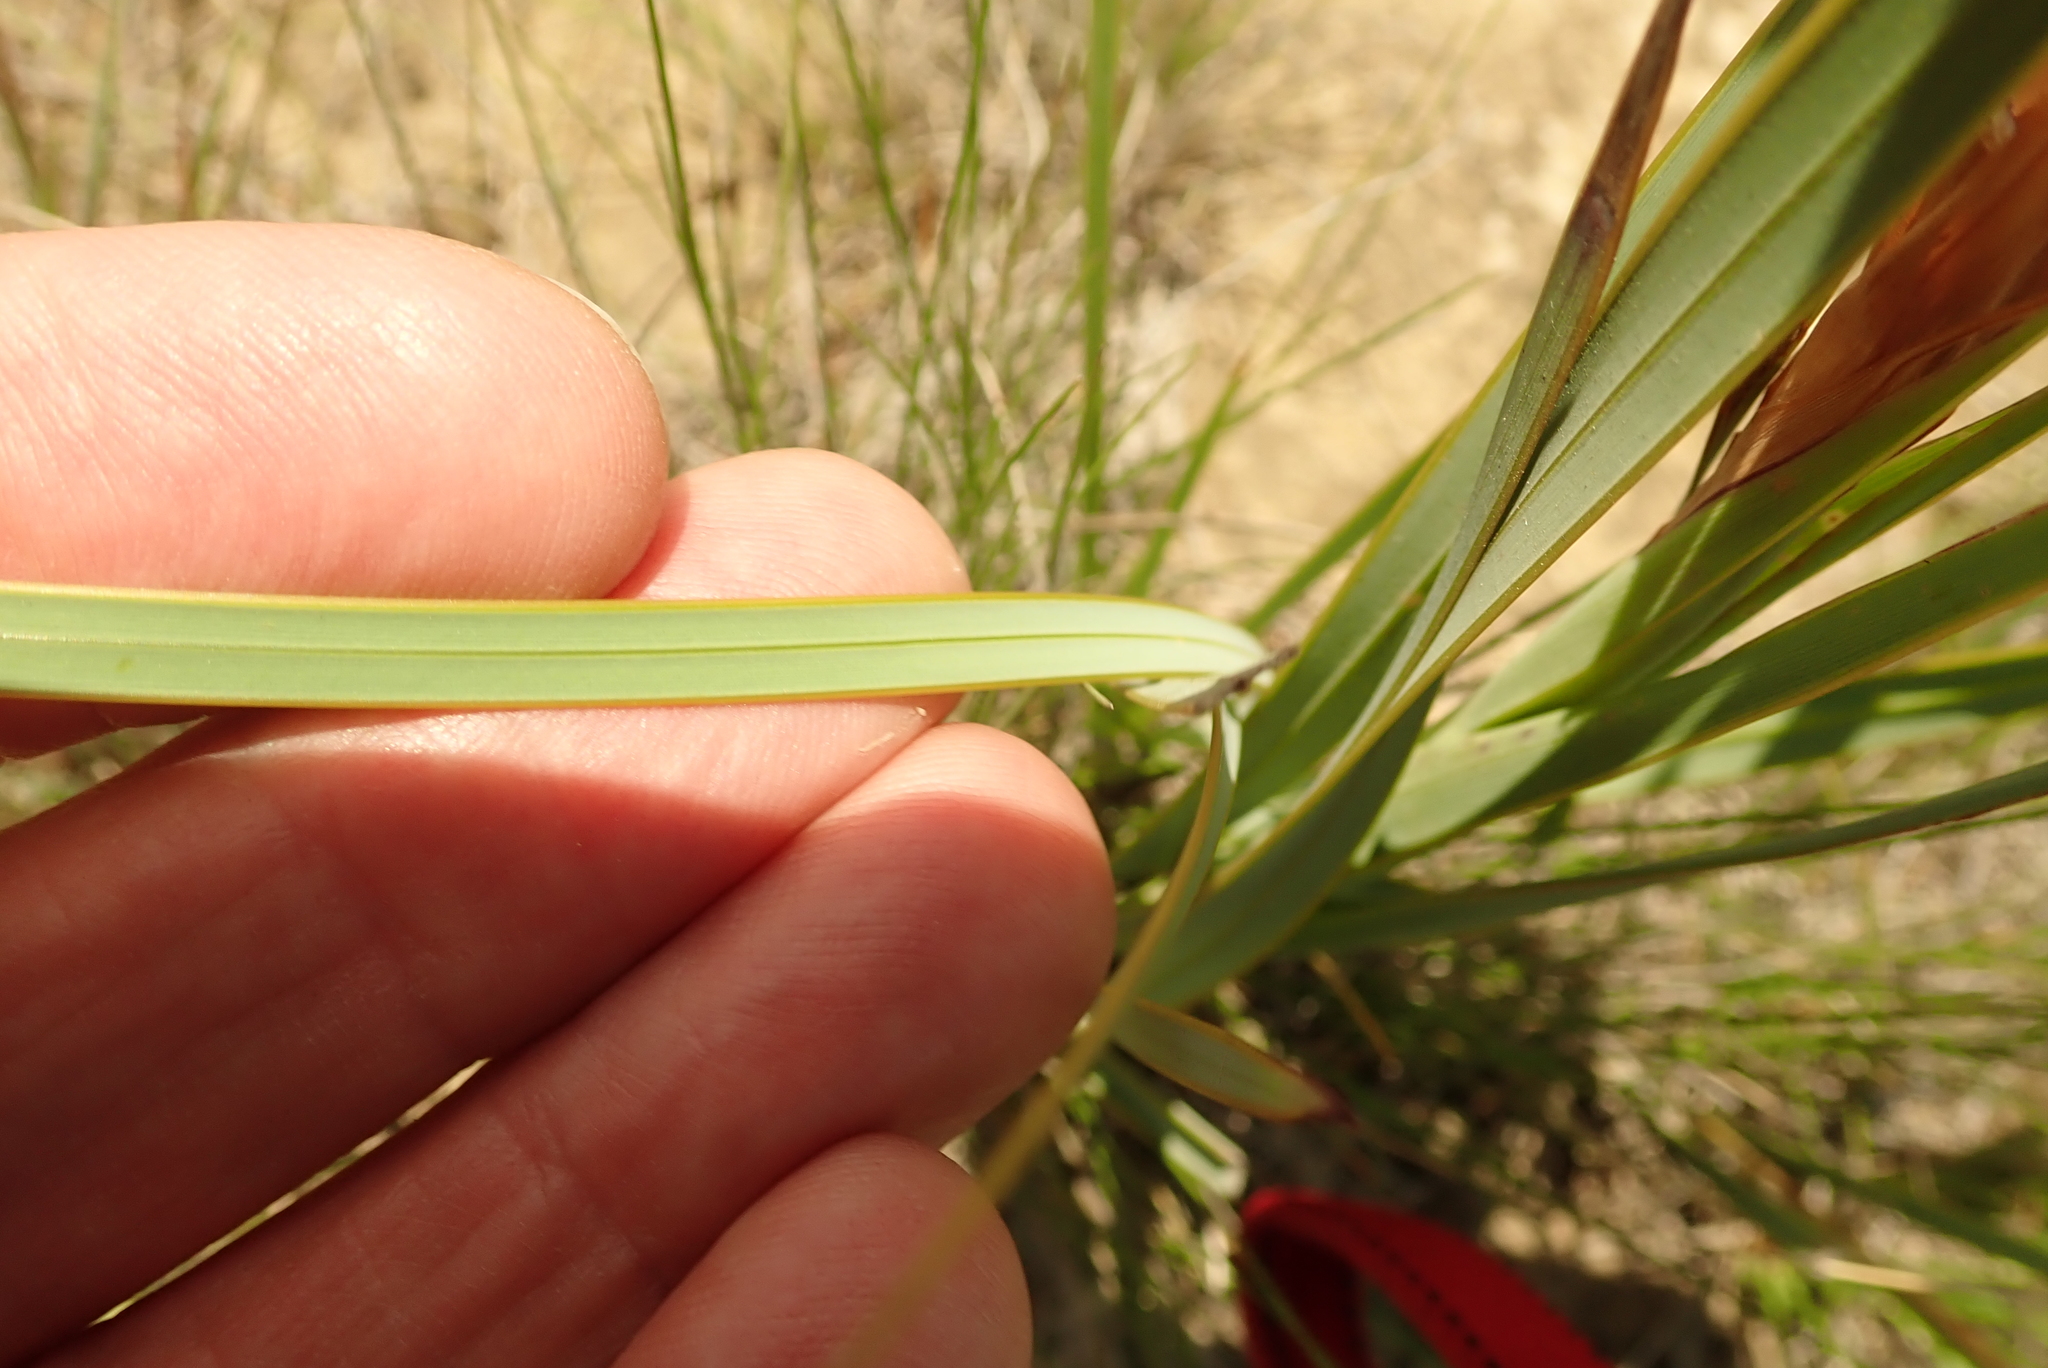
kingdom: Plantae
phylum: Tracheophyta
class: Liliopsida
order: Asparagales
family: Iridaceae
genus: Watsonia
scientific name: Watsonia lepida
